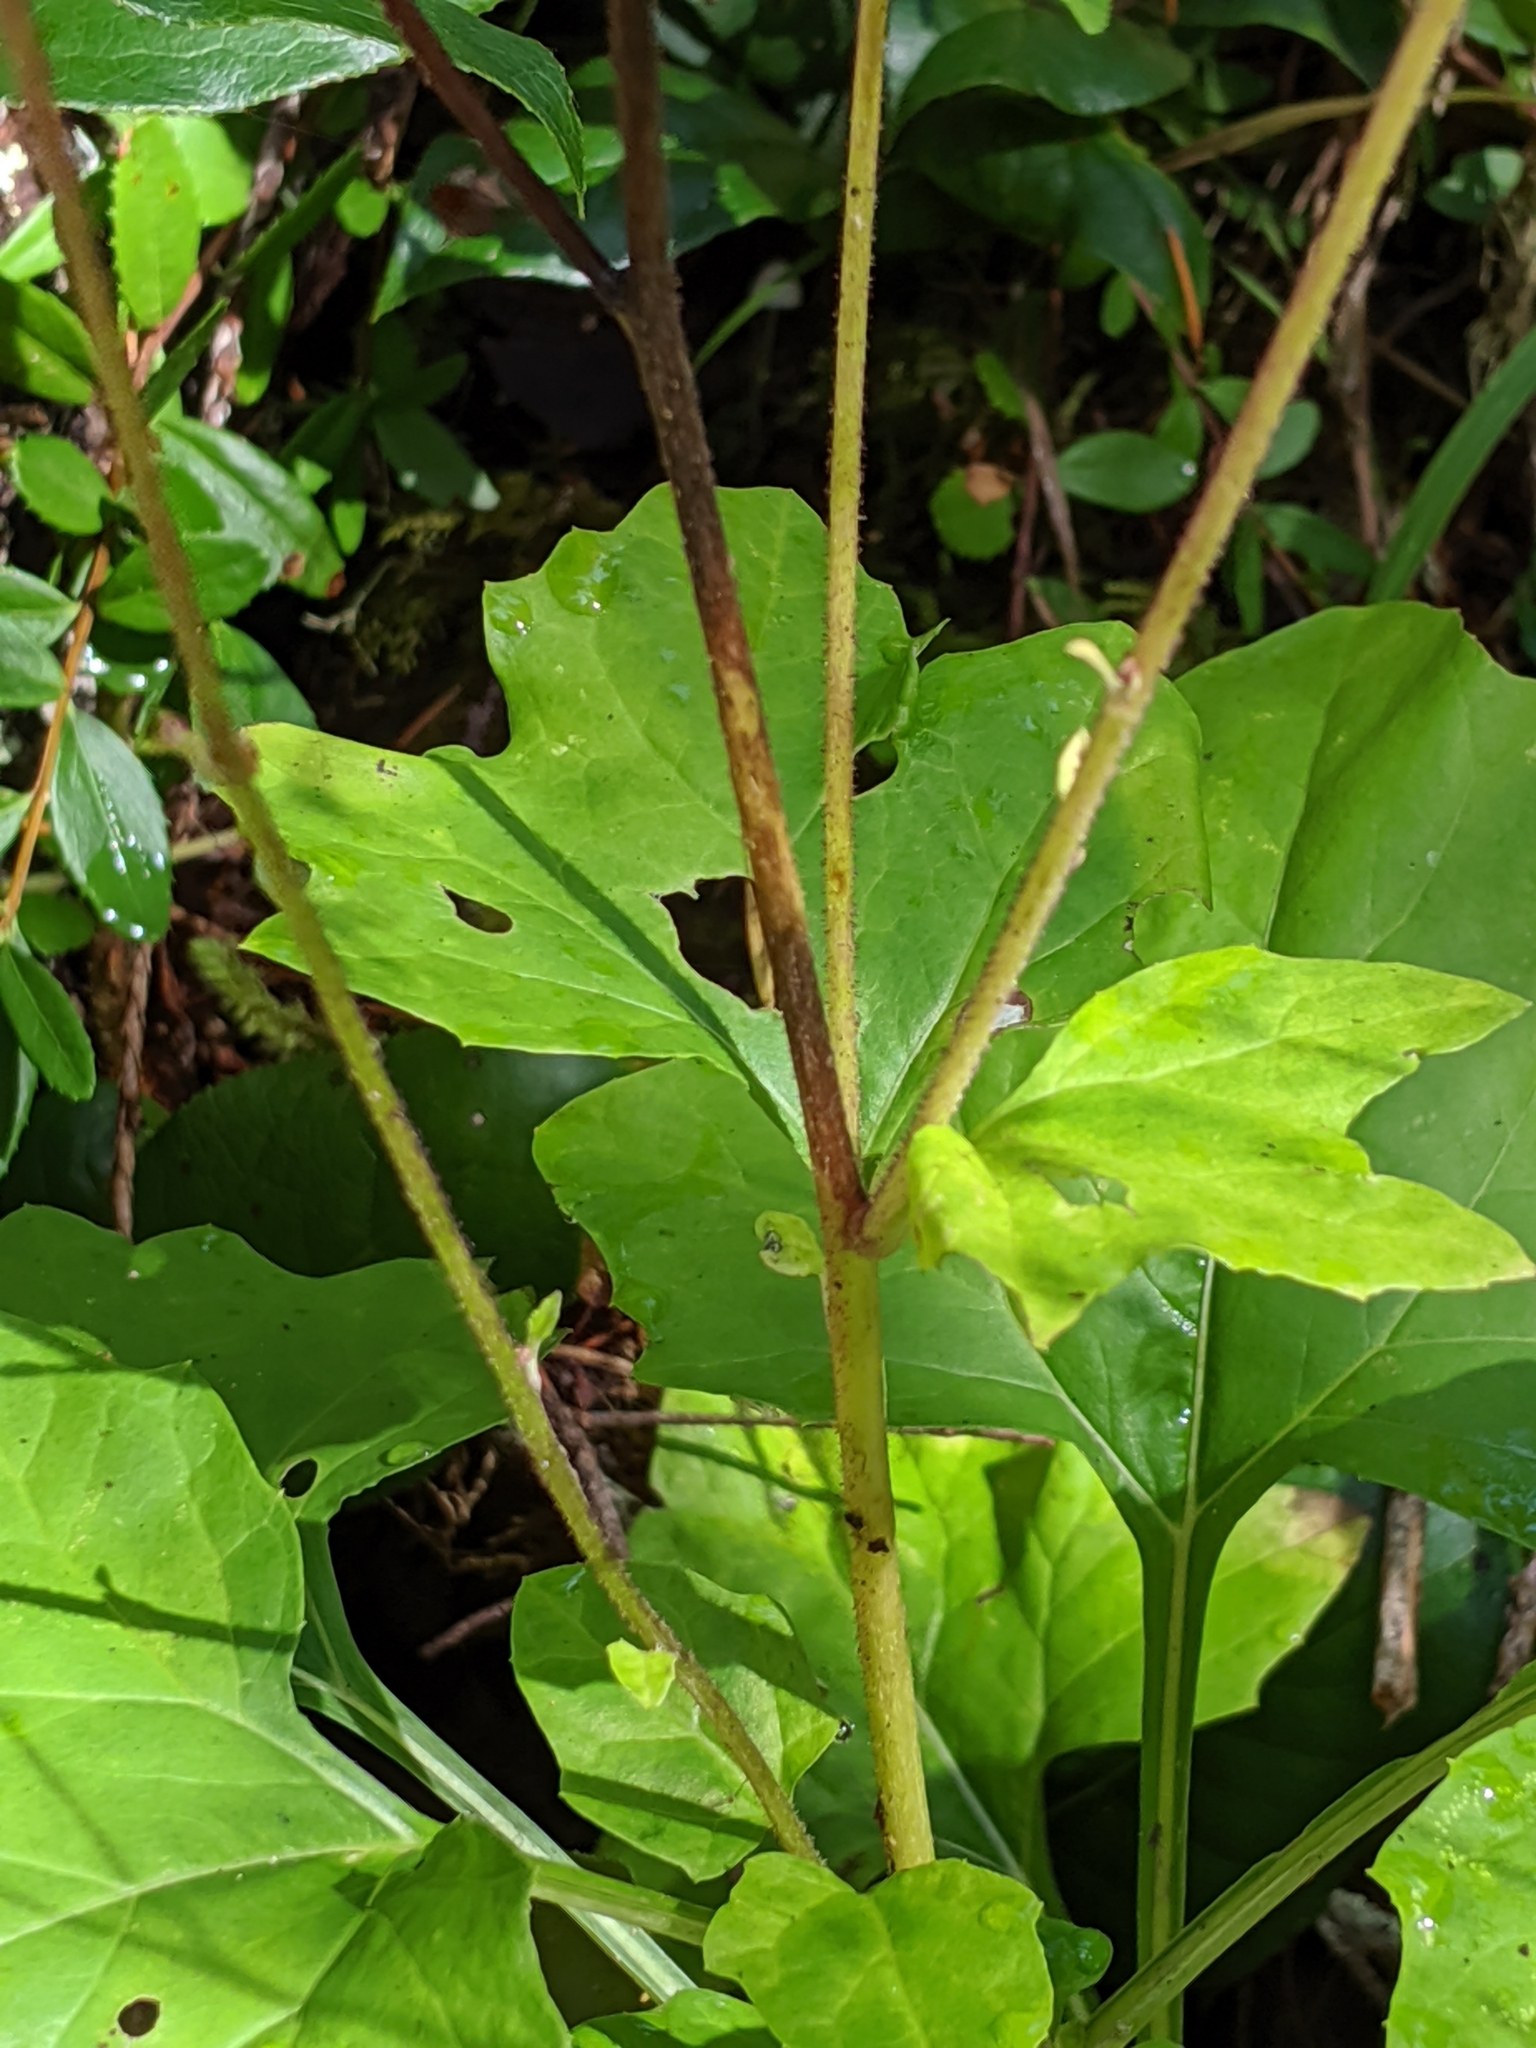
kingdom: Plantae
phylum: Tracheophyta
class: Magnoliopsida
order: Asterales
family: Asteraceae
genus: Adenocaulon
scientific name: Adenocaulon bicolor
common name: Trailplant
